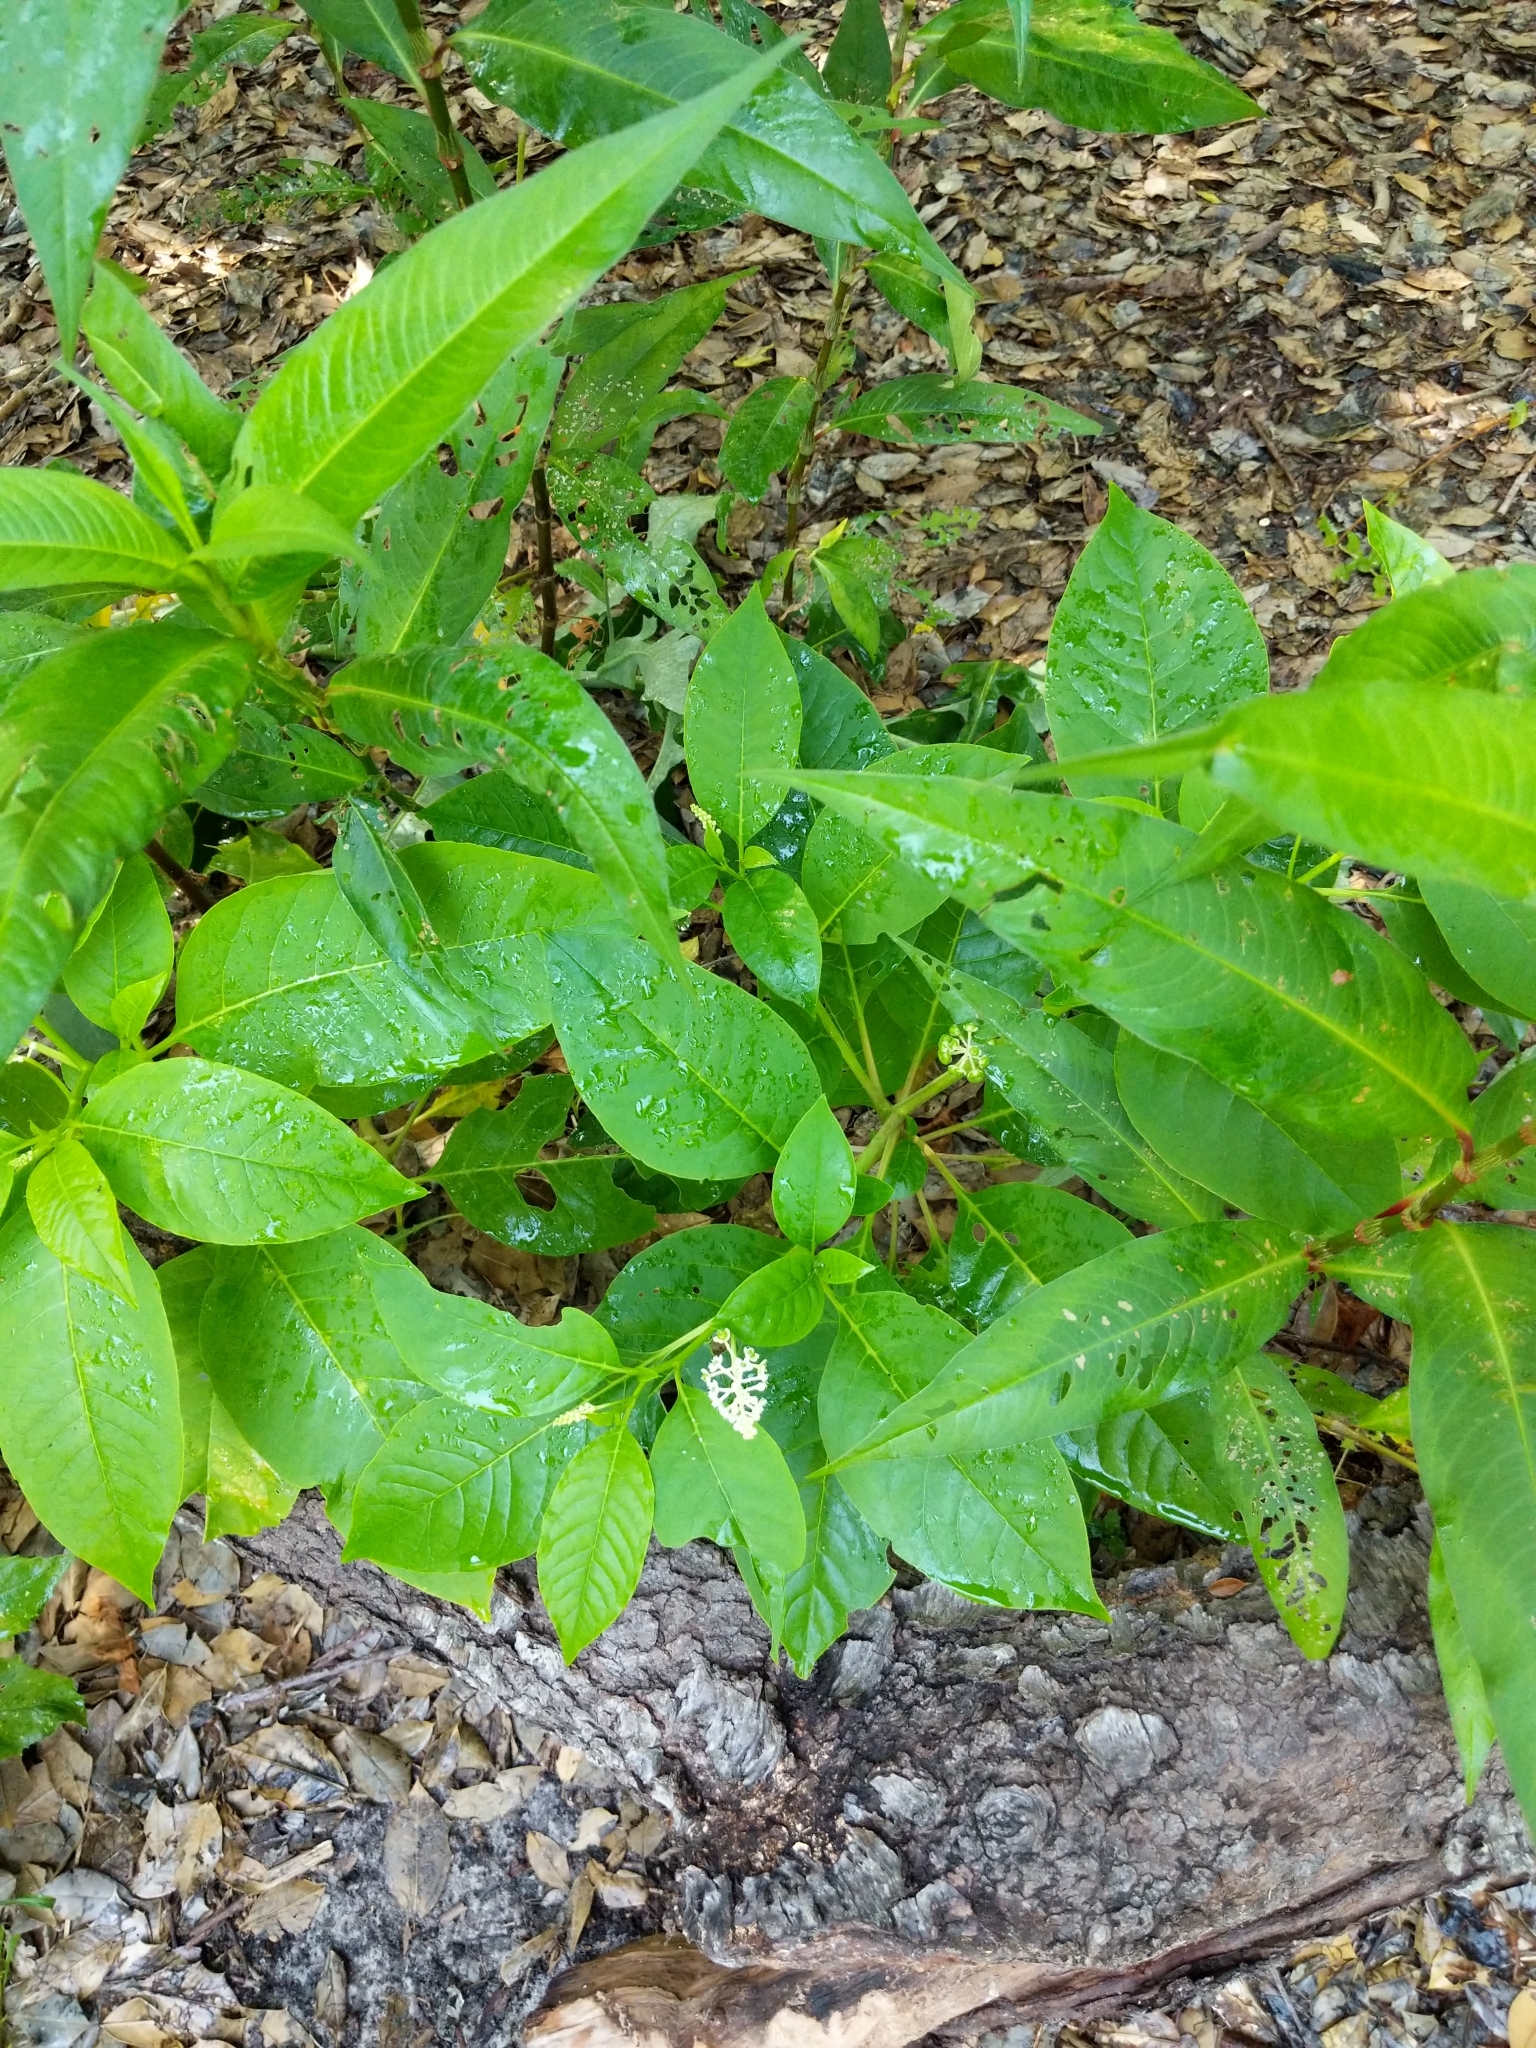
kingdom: Plantae
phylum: Tracheophyta
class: Magnoliopsida
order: Caryophyllales
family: Phytolaccaceae
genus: Phytolacca
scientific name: Phytolacca americana
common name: American pokeweed
